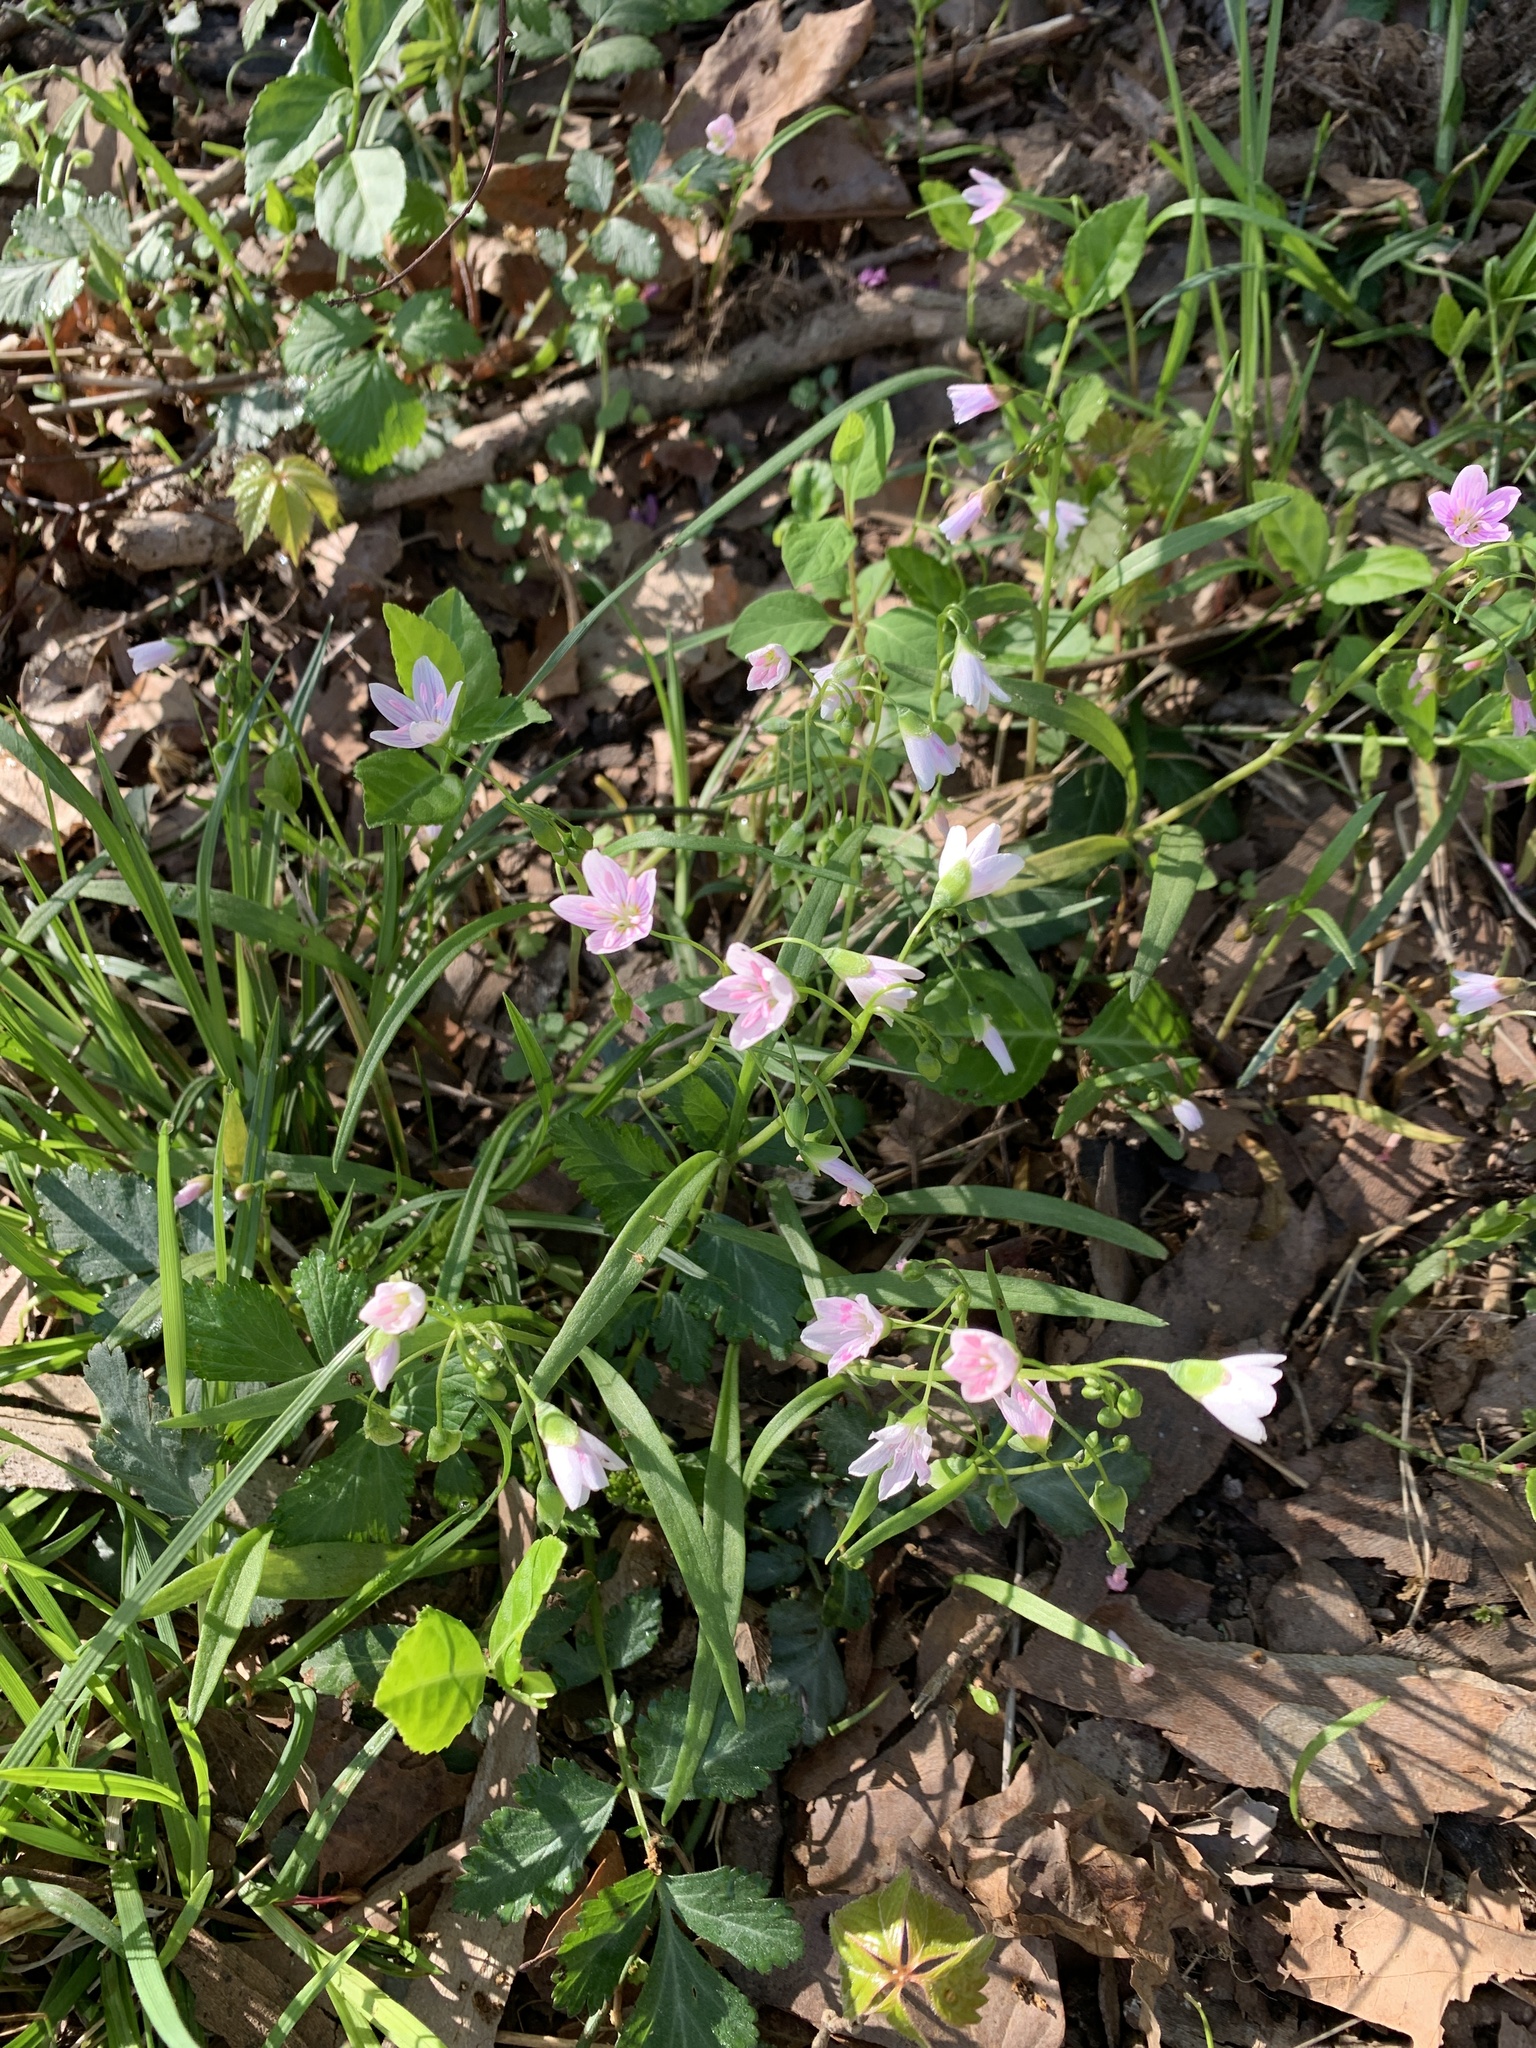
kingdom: Plantae
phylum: Tracheophyta
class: Magnoliopsida
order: Caryophyllales
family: Montiaceae
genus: Claytonia
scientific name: Claytonia virginica
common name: Virginia springbeauty
